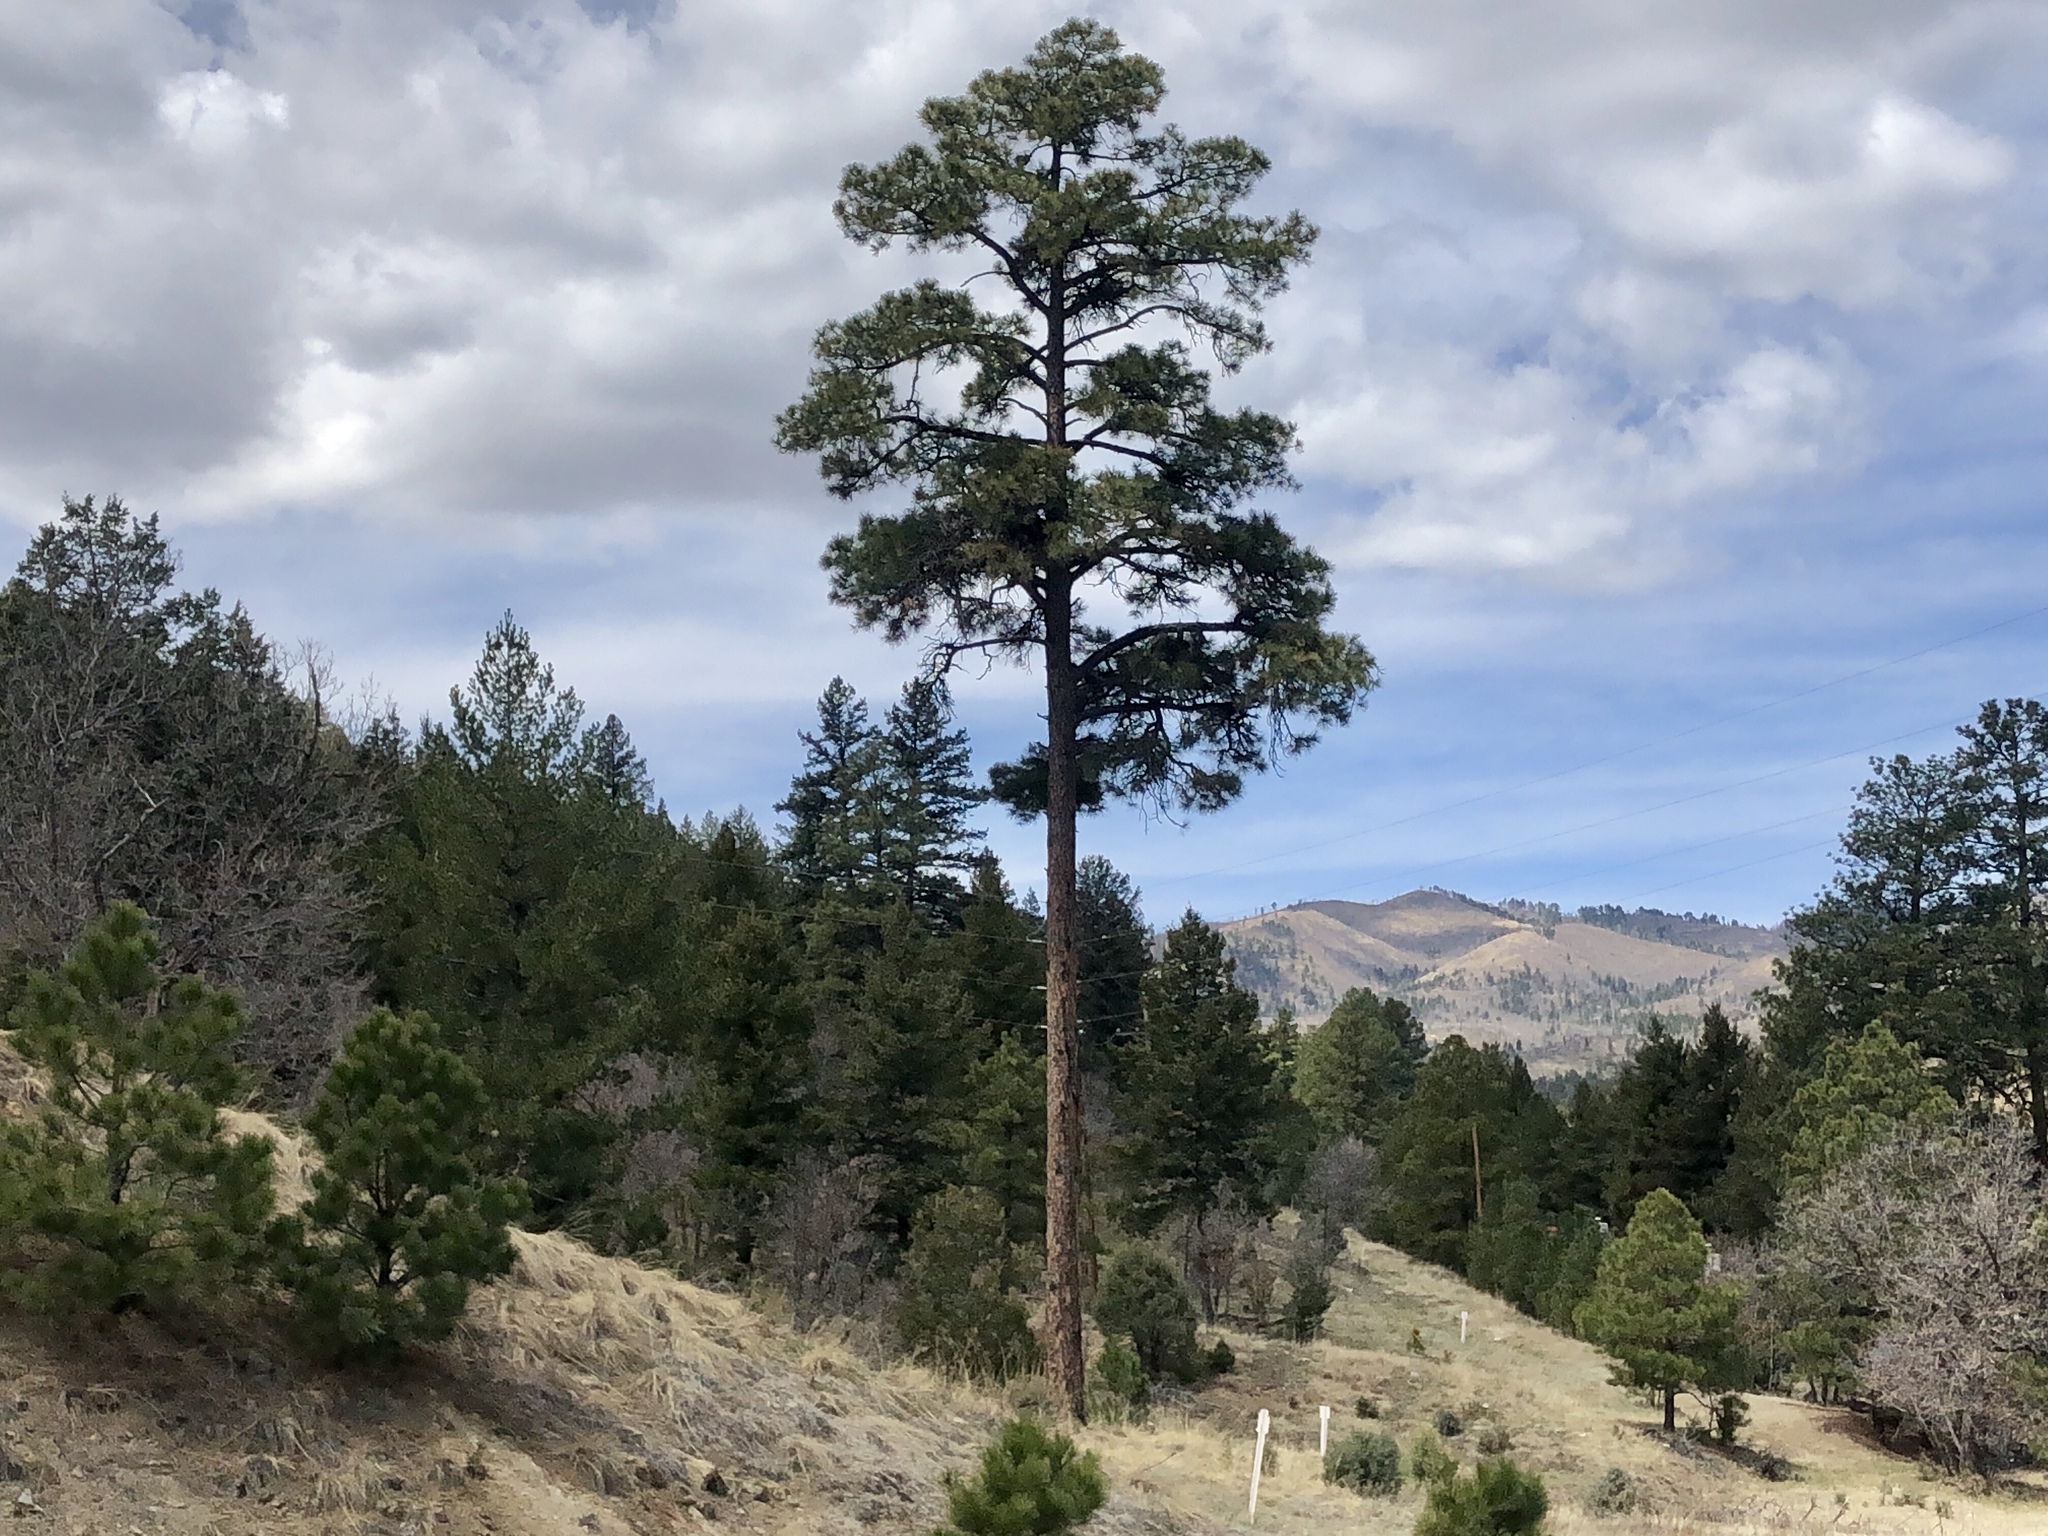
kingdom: Plantae
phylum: Tracheophyta
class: Pinopsida
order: Pinales
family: Pinaceae
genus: Pinus
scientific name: Pinus ponderosa
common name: Western yellow-pine
